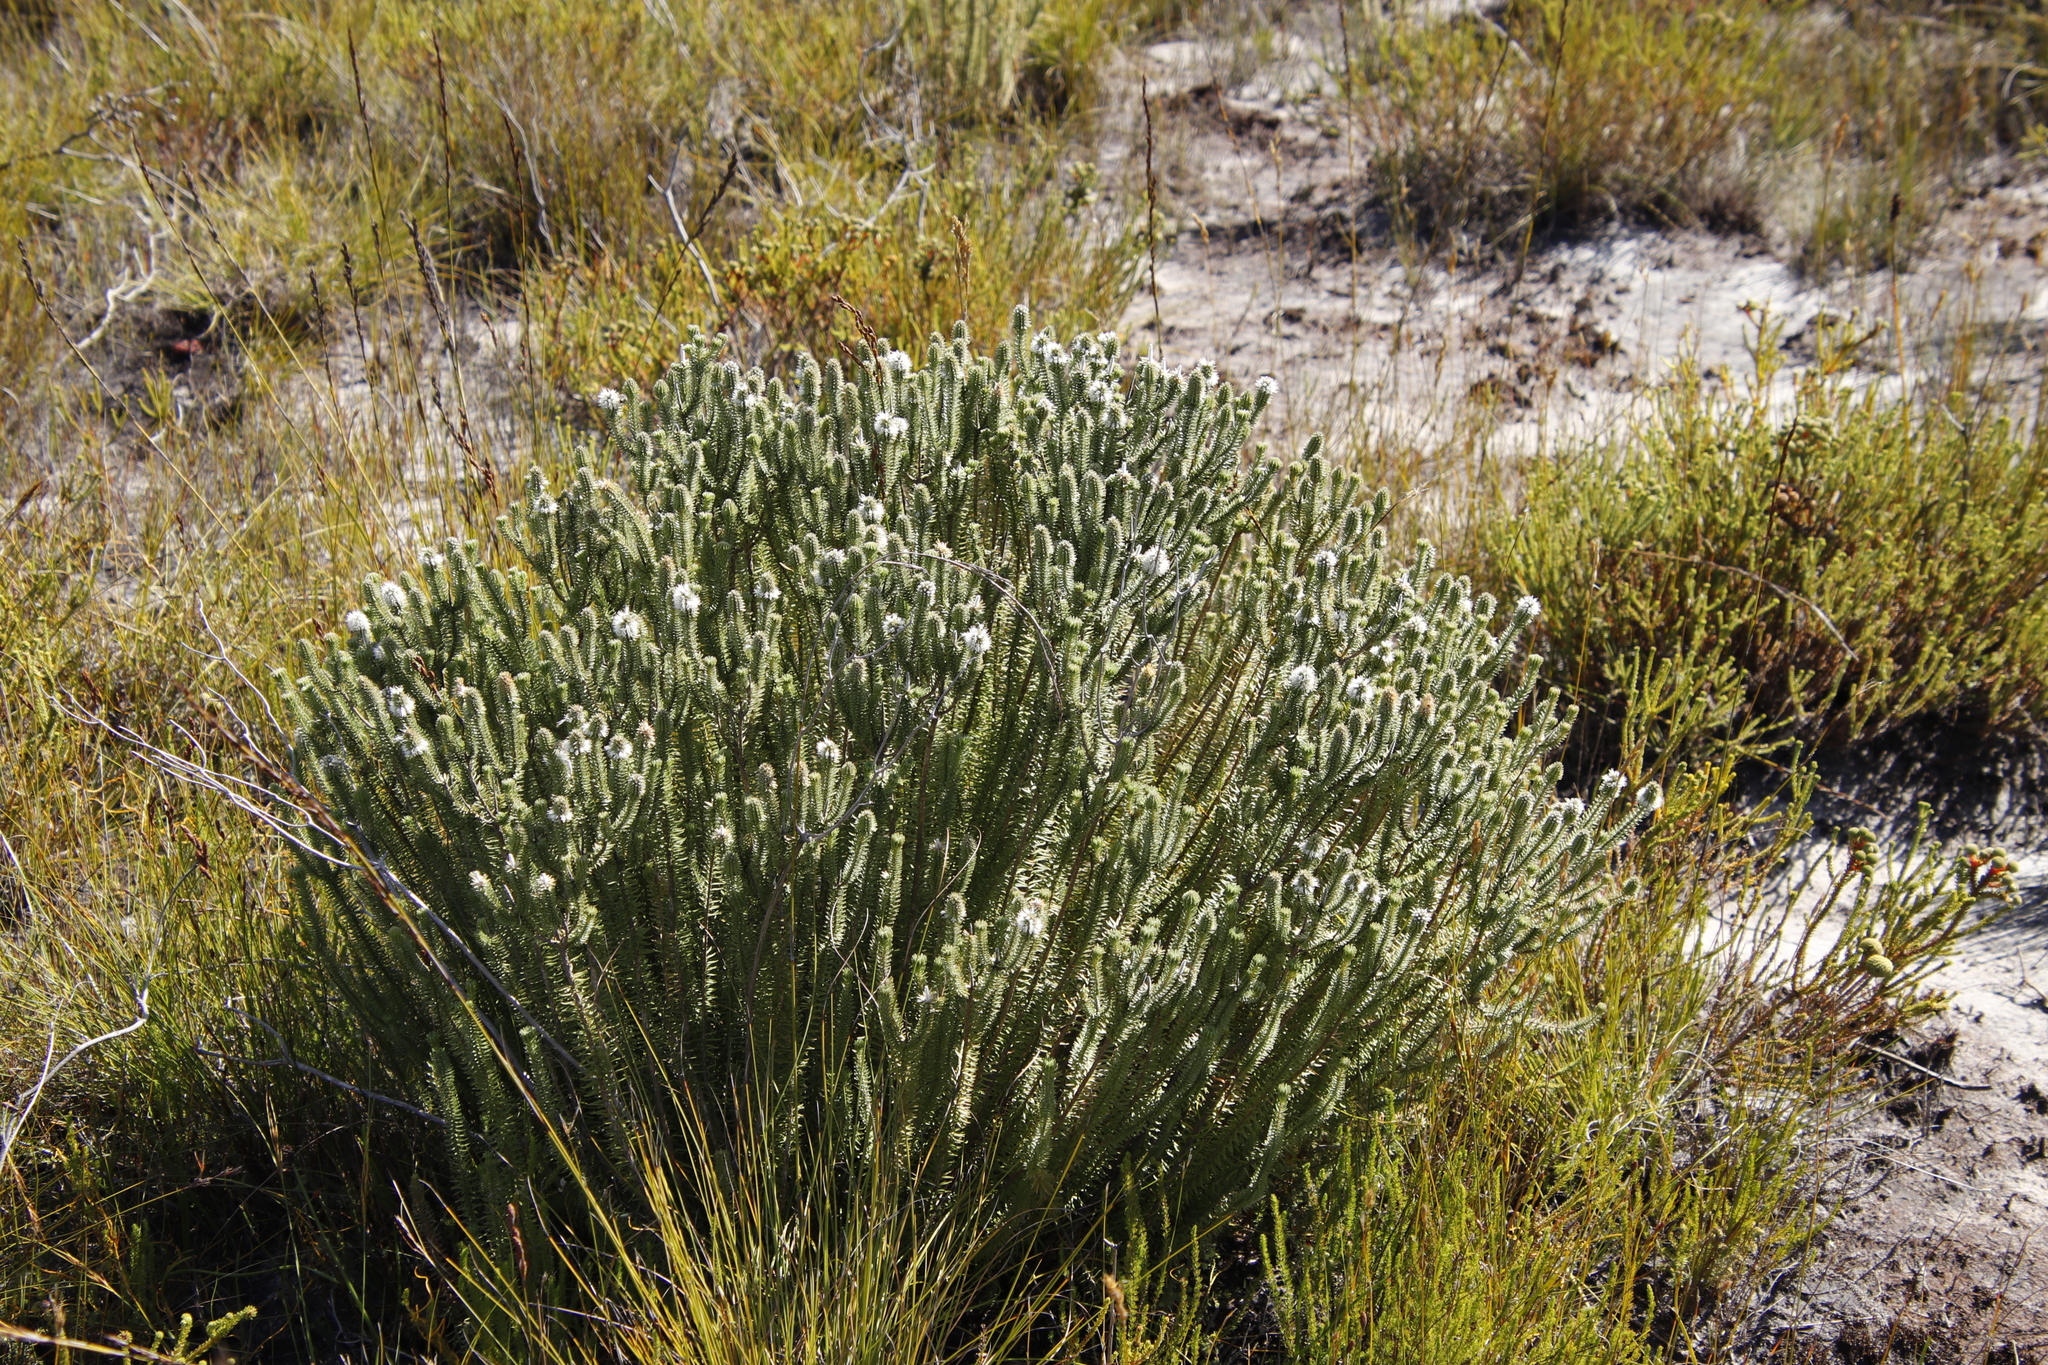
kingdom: Plantae
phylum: Tracheophyta
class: Magnoliopsida
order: Lamiales
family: Stilbaceae
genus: Stilbe
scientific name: Stilbe vestita
